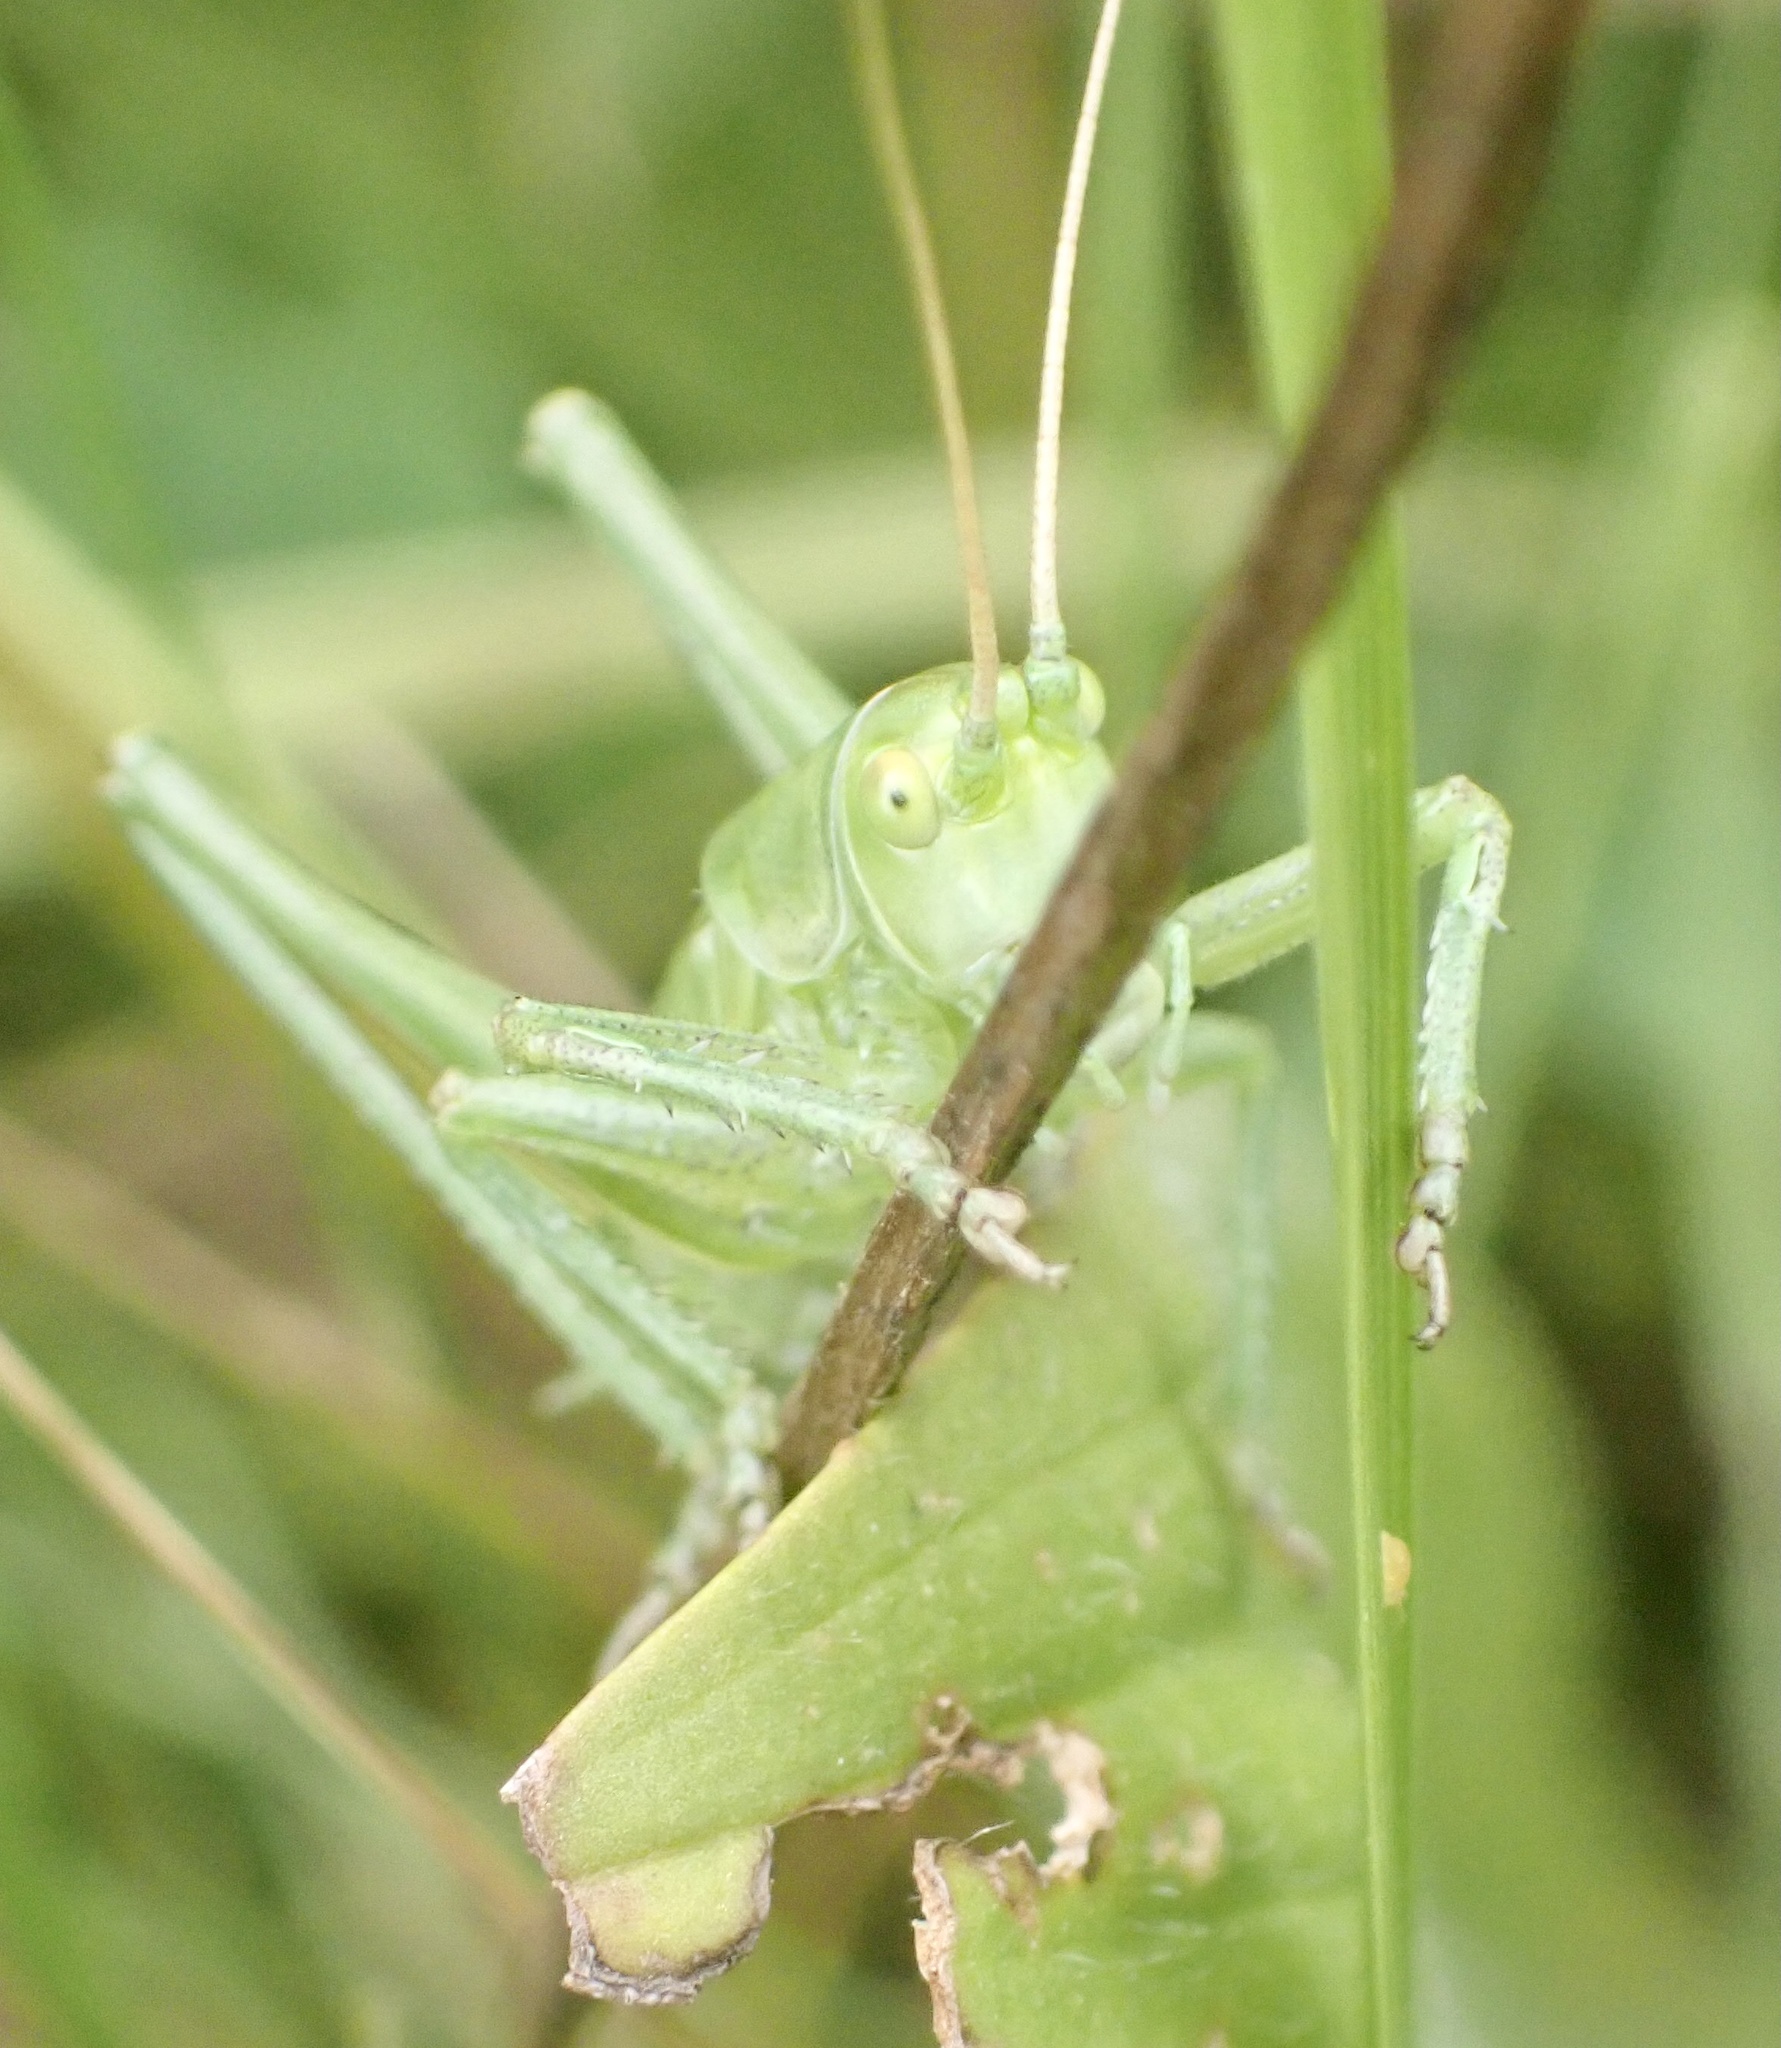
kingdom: Animalia
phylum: Arthropoda
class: Insecta
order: Orthoptera
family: Tettigoniidae
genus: Tettigonia
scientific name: Tettigonia viridissima
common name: Great green bush-cricket
